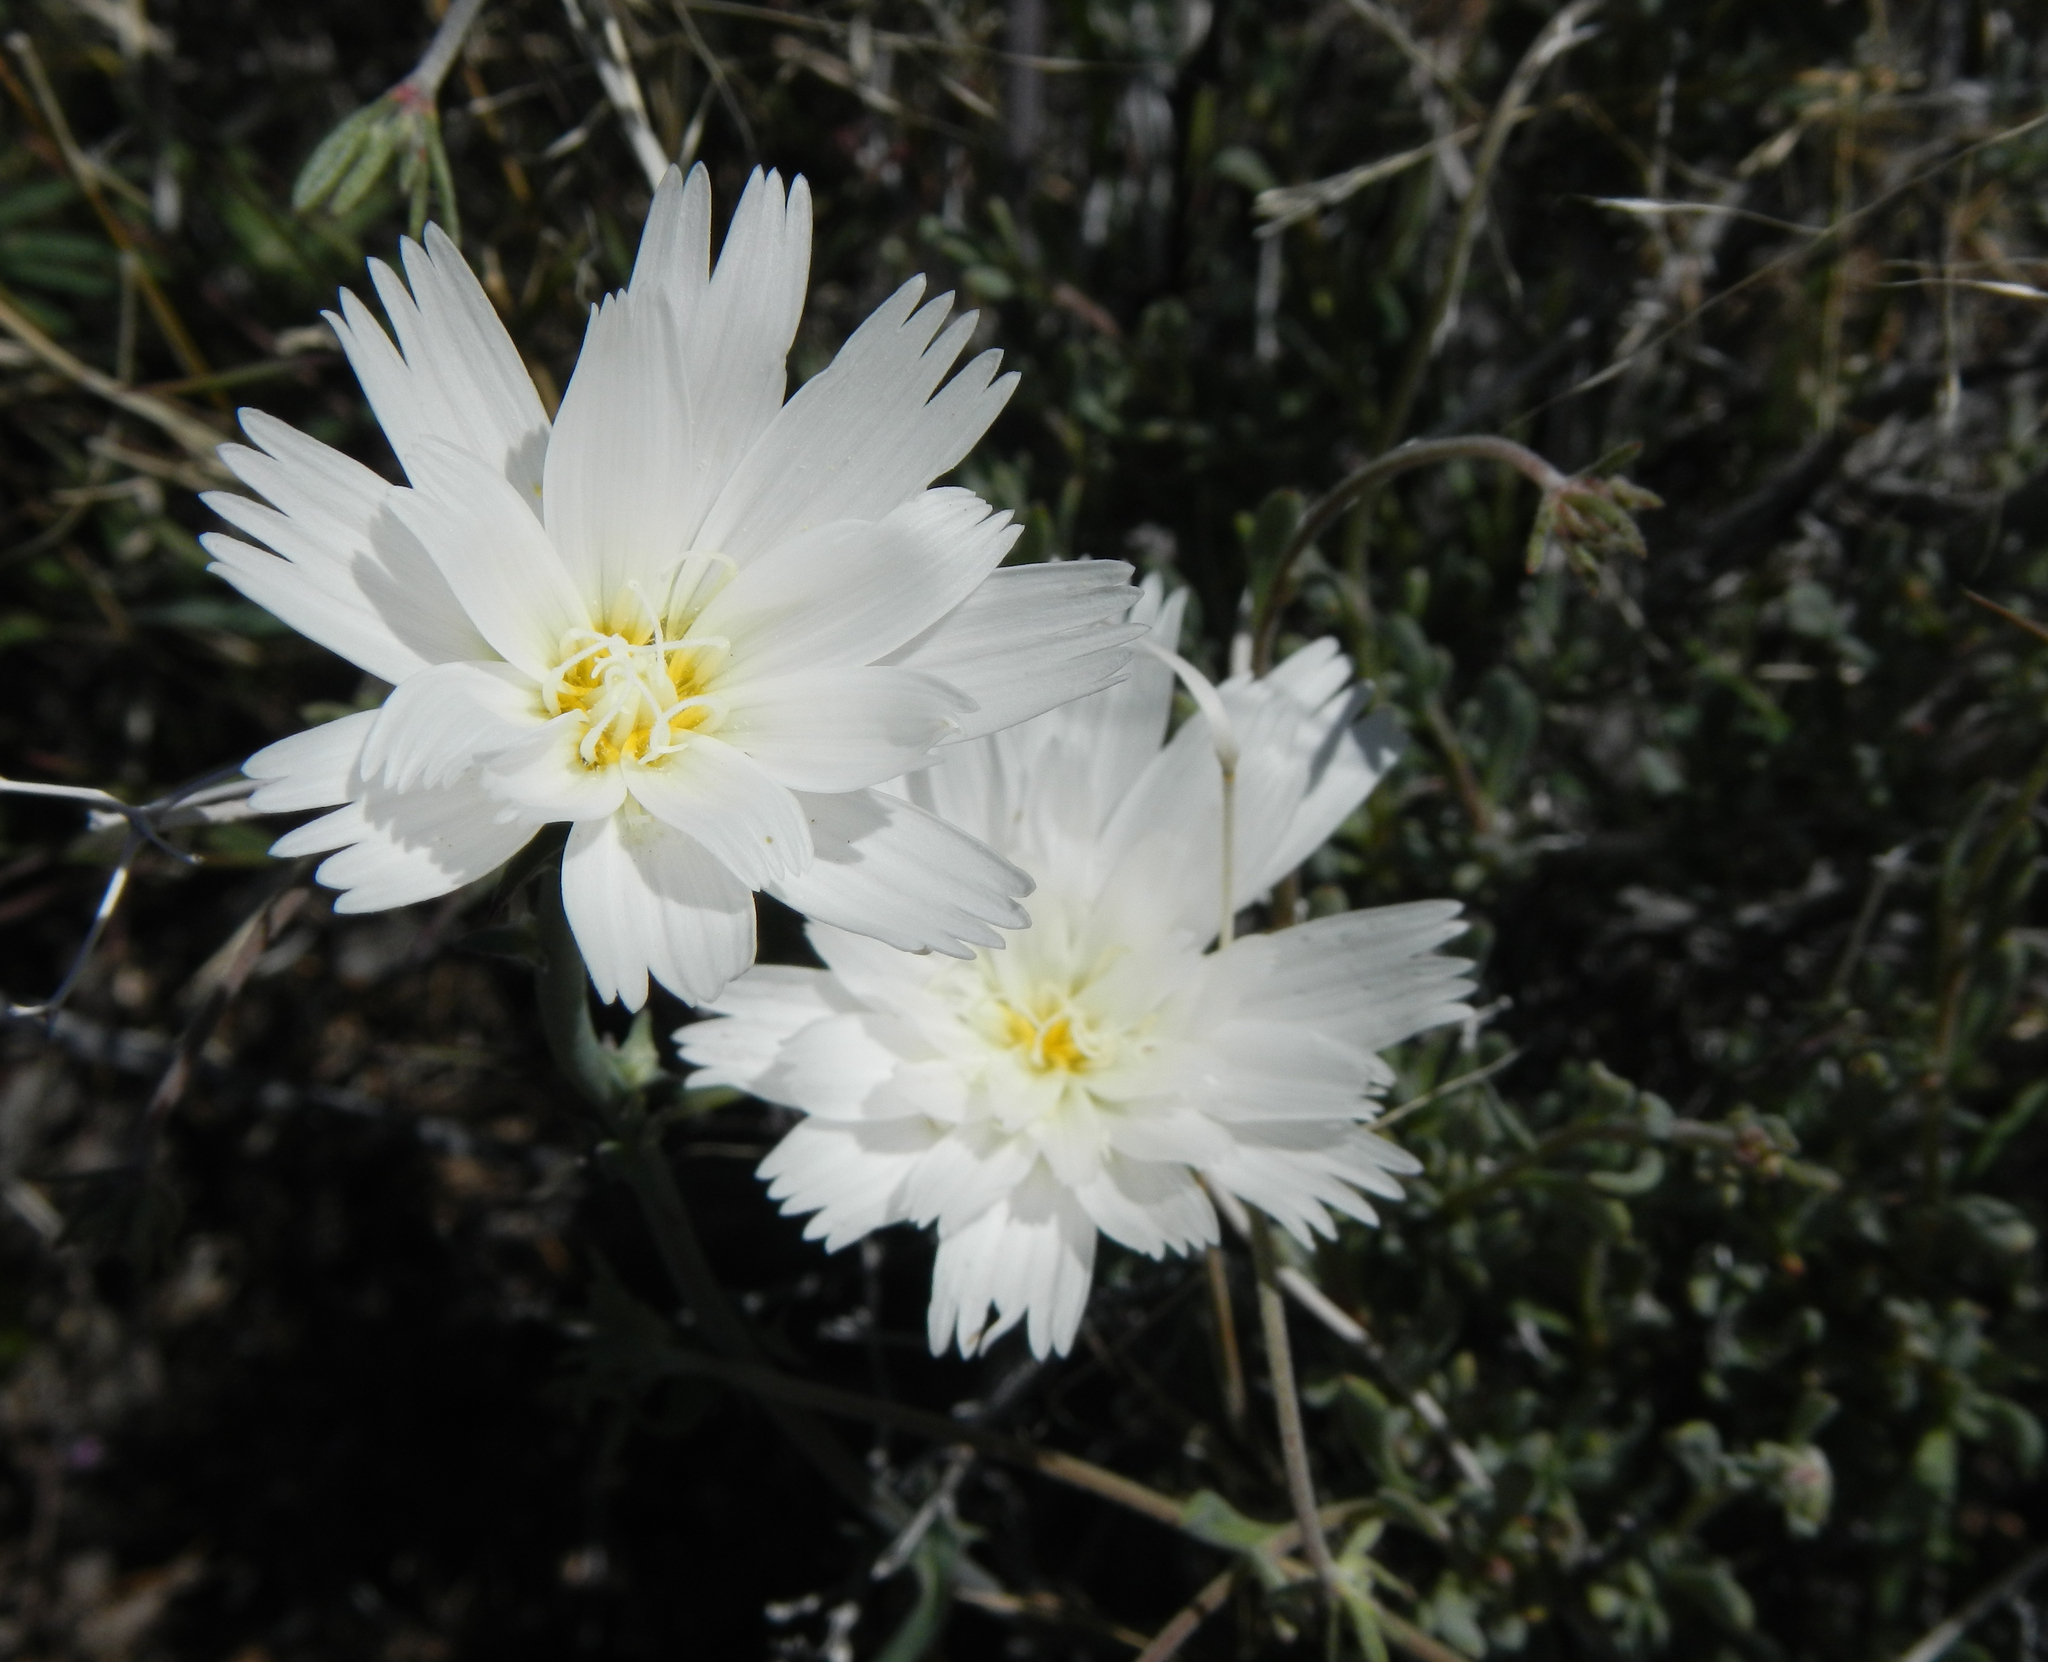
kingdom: Plantae
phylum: Tracheophyta
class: Magnoliopsida
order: Asterales
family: Asteraceae
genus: Rafinesquia
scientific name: Rafinesquia neomexicana
